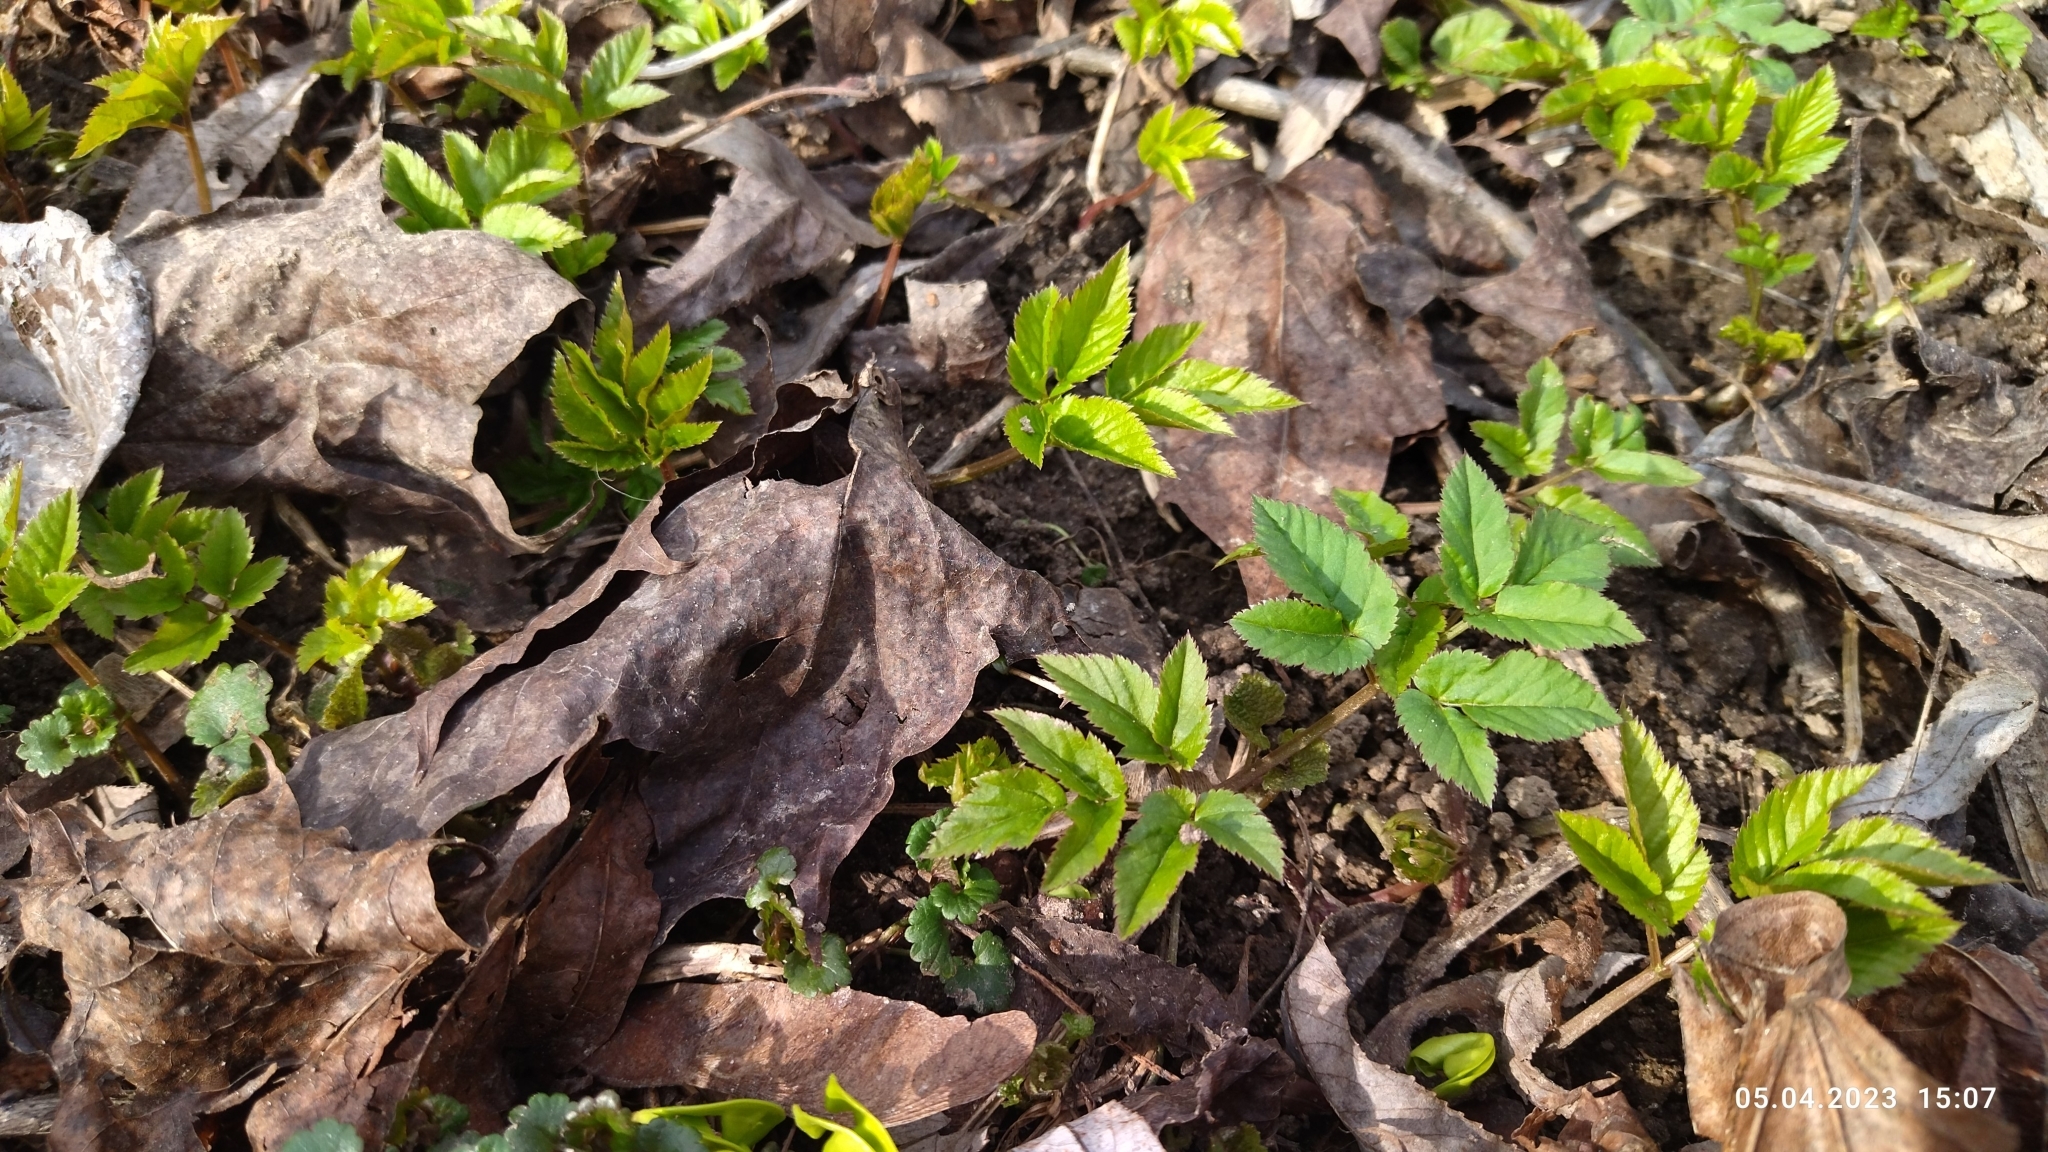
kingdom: Plantae
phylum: Tracheophyta
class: Magnoliopsida
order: Apiales
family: Apiaceae
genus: Aegopodium
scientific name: Aegopodium podagraria
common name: Ground-elder
